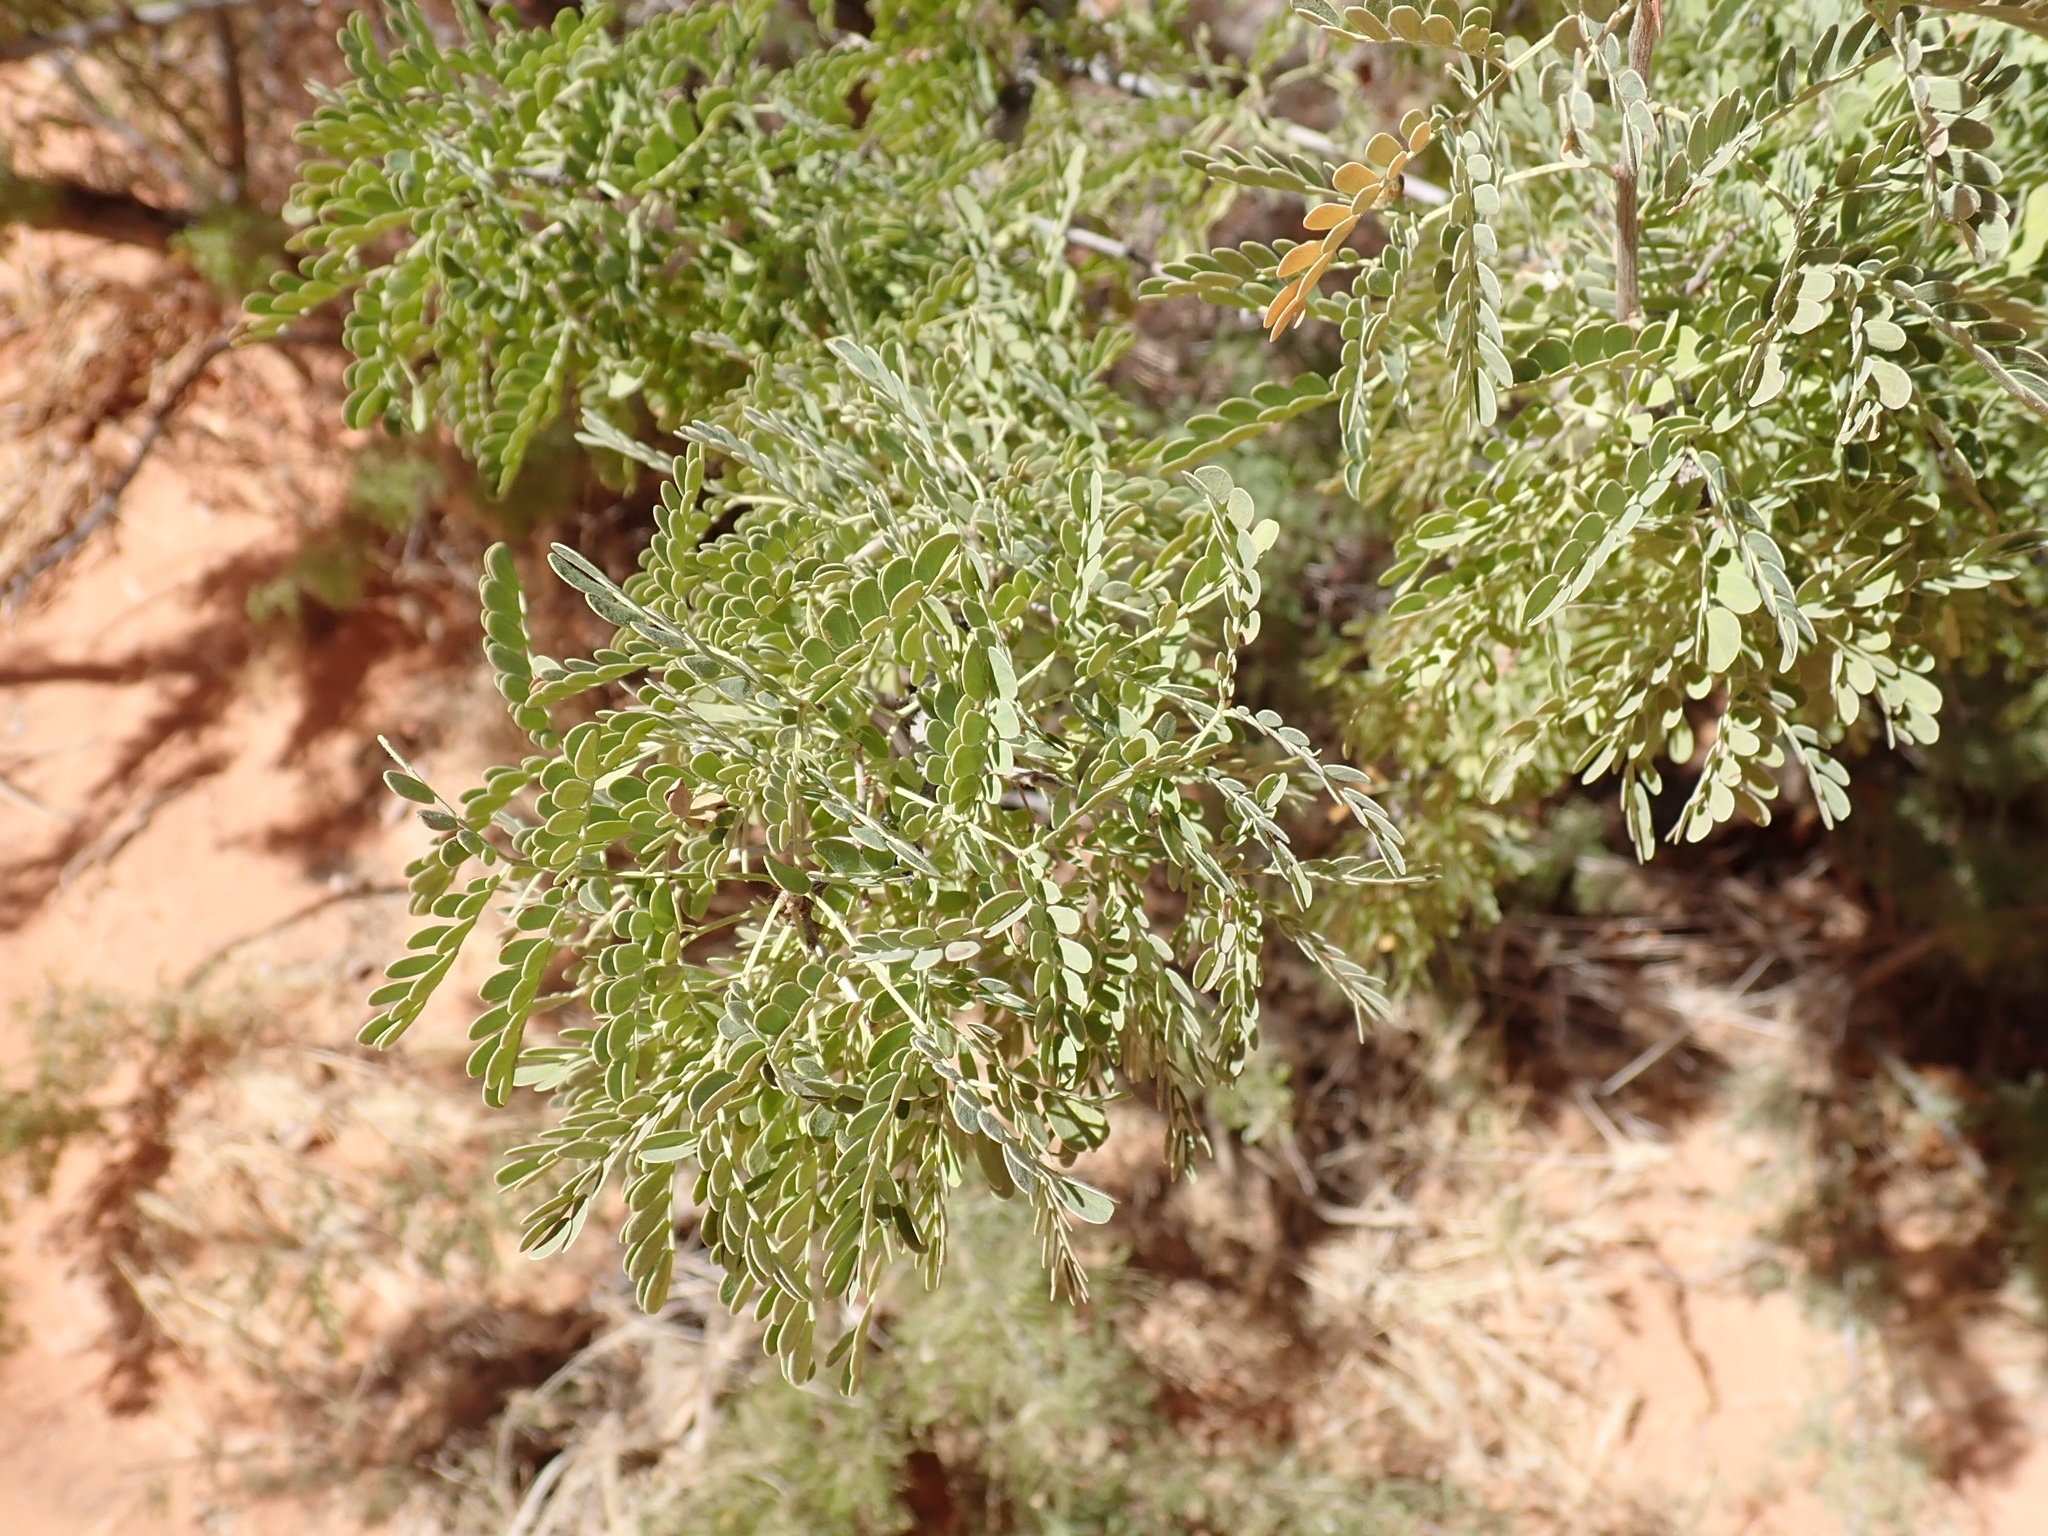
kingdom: Plantae
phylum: Tracheophyta
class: Magnoliopsida
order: Fabales
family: Fabaceae
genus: Senegalia
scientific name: Senegalia greggii
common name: Texas-mimosa
